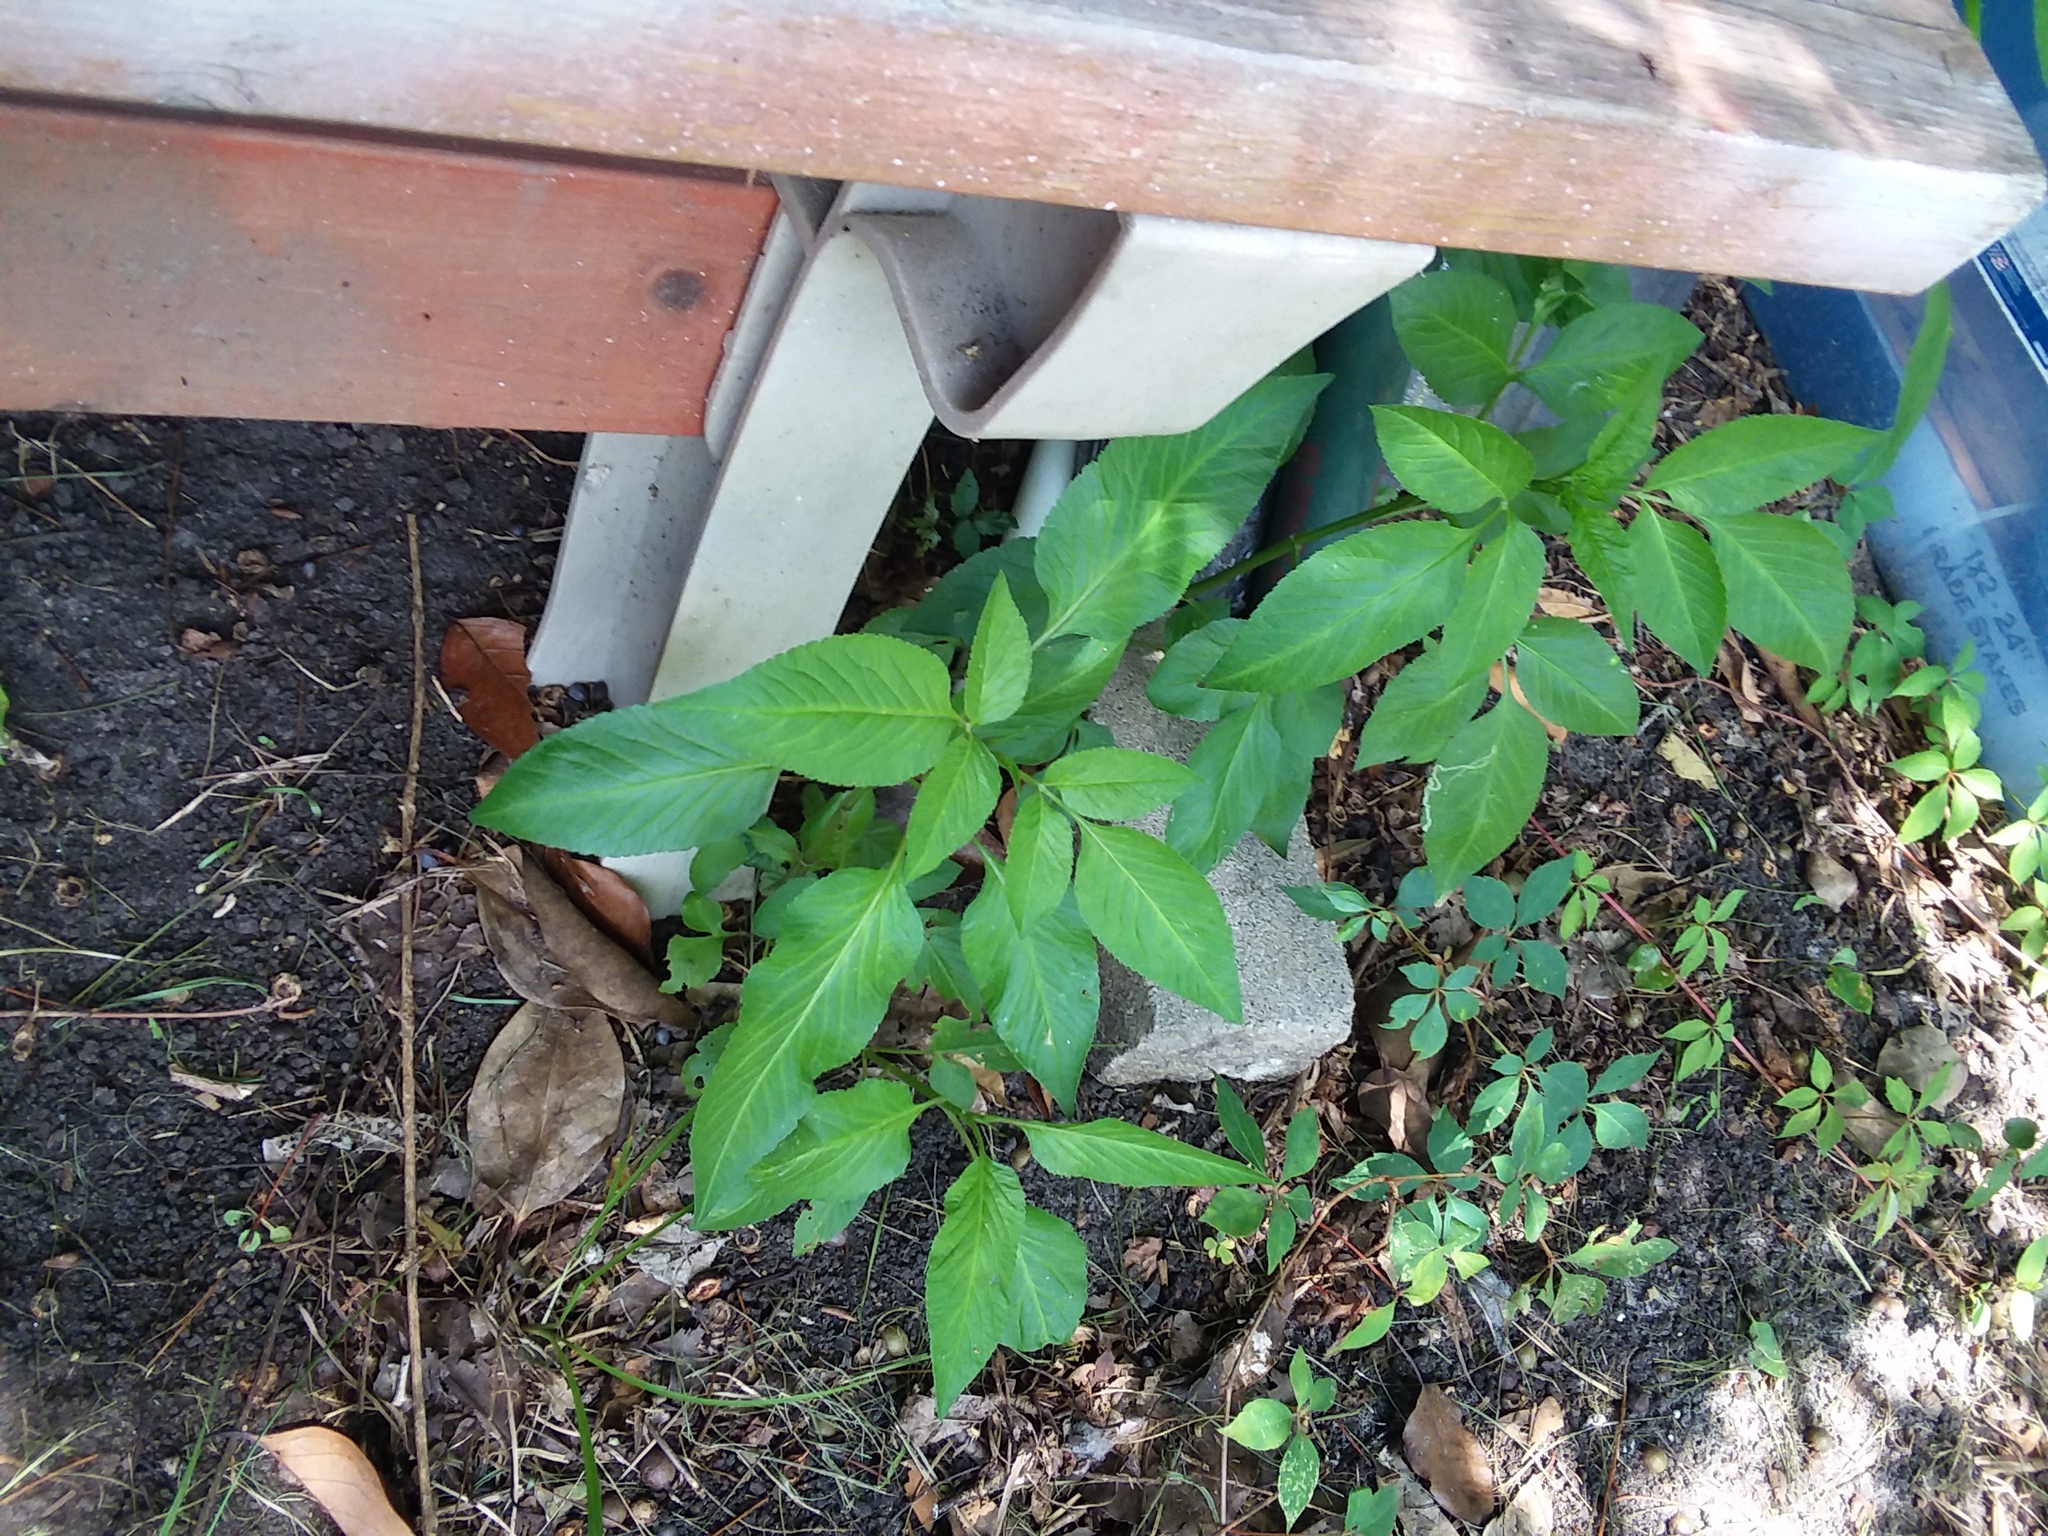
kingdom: Plantae
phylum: Tracheophyta
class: Magnoliopsida
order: Asterales
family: Asteraceae
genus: Bidens
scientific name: Bidens alba
